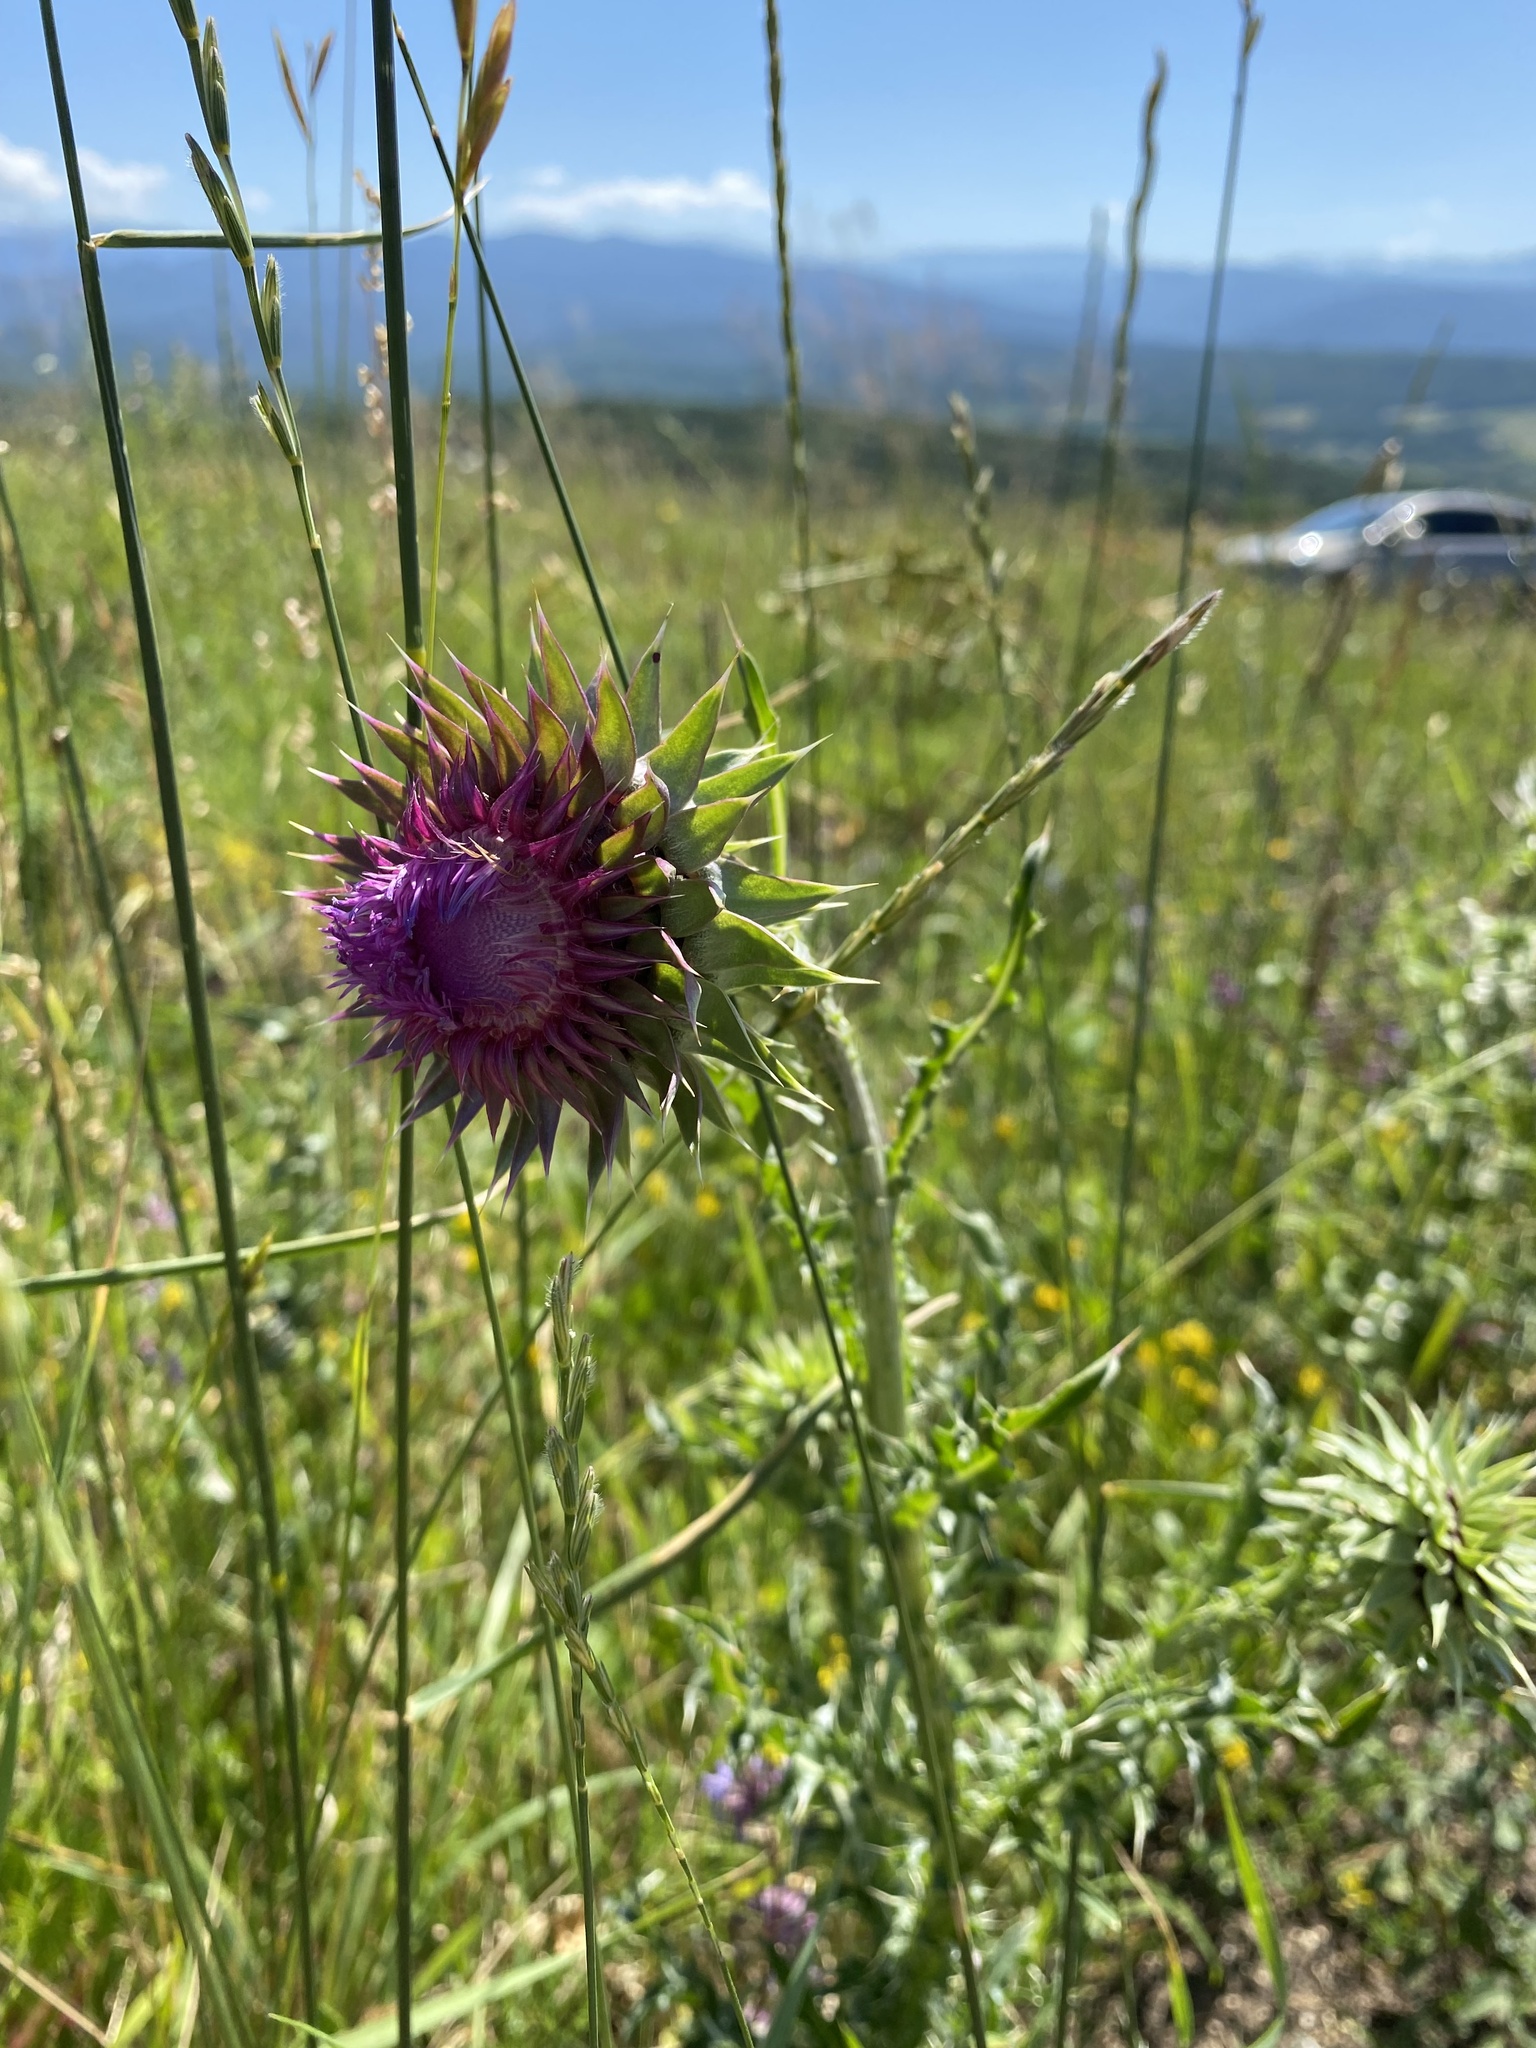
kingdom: Plantae
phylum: Tracheophyta
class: Magnoliopsida
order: Asterales
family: Asteraceae
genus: Carduus
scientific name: Carduus nutans
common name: Musk thistle
